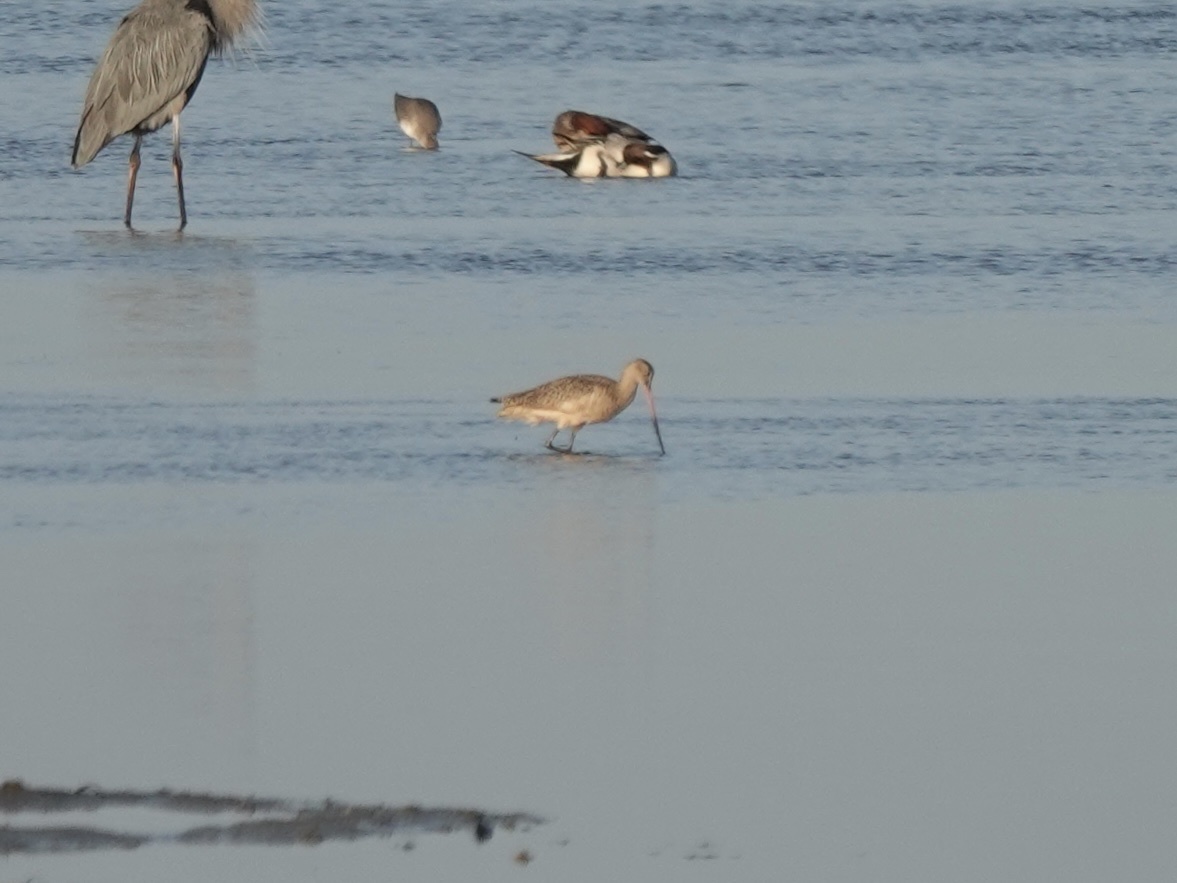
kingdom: Animalia
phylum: Chordata
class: Aves
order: Charadriiformes
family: Scolopacidae
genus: Limosa
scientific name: Limosa fedoa
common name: Marbled godwit
